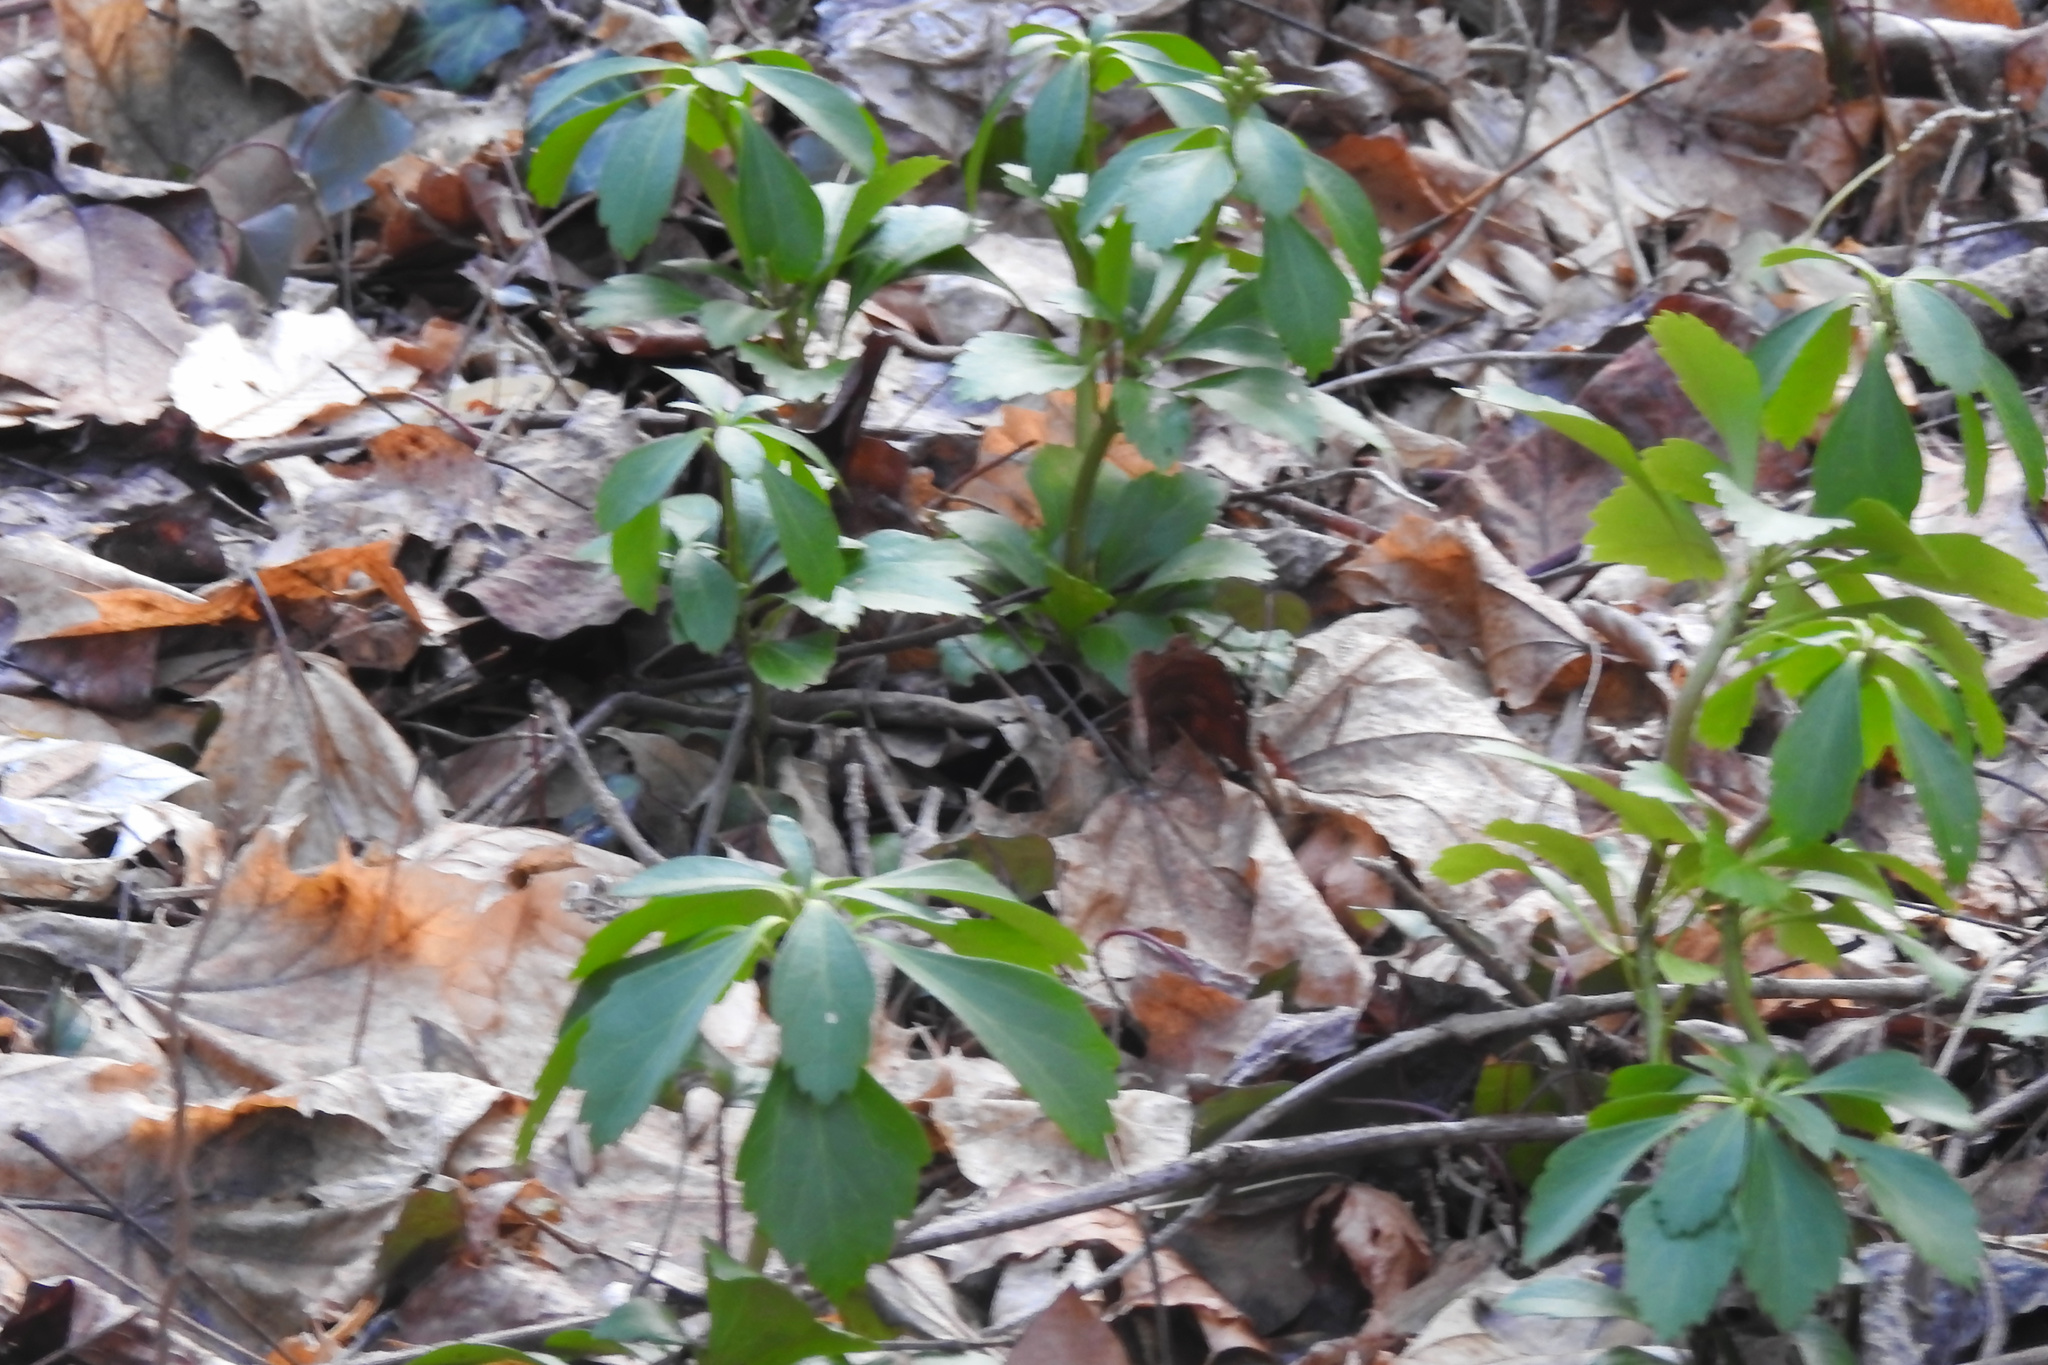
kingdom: Plantae
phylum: Tracheophyta
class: Magnoliopsida
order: Buxales
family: Buxaceae
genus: Pachysandra
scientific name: Pachysandra terminalis
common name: Japanese pachysandra
